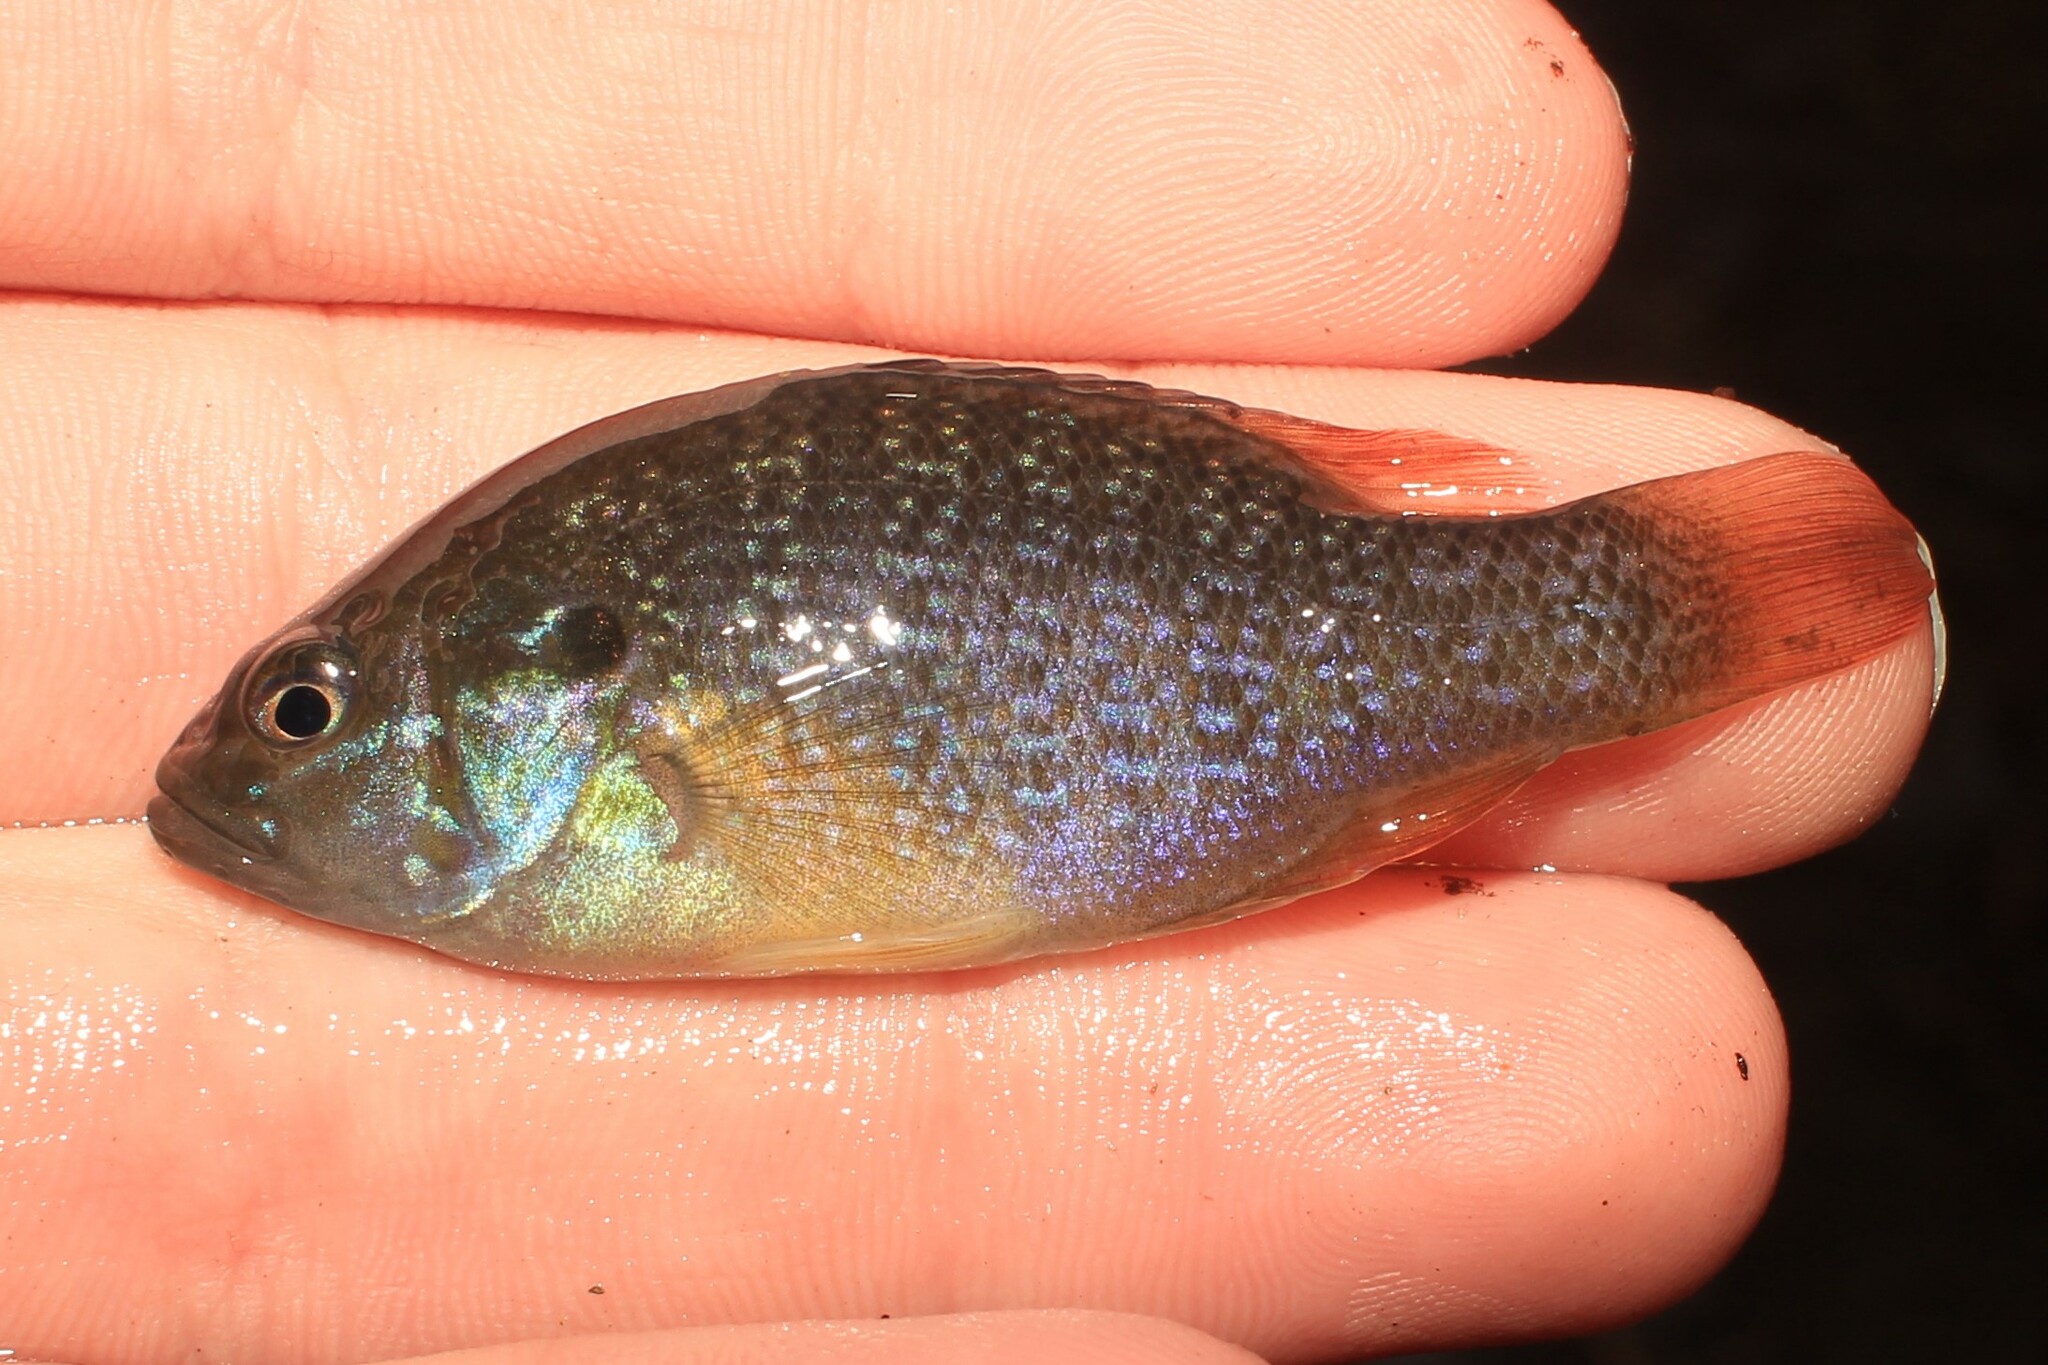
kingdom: Animalia
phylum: Chordata
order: Perciformes
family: Centrarchidae
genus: Lepomis
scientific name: Lepomis cyanellus
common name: Green sunfish
